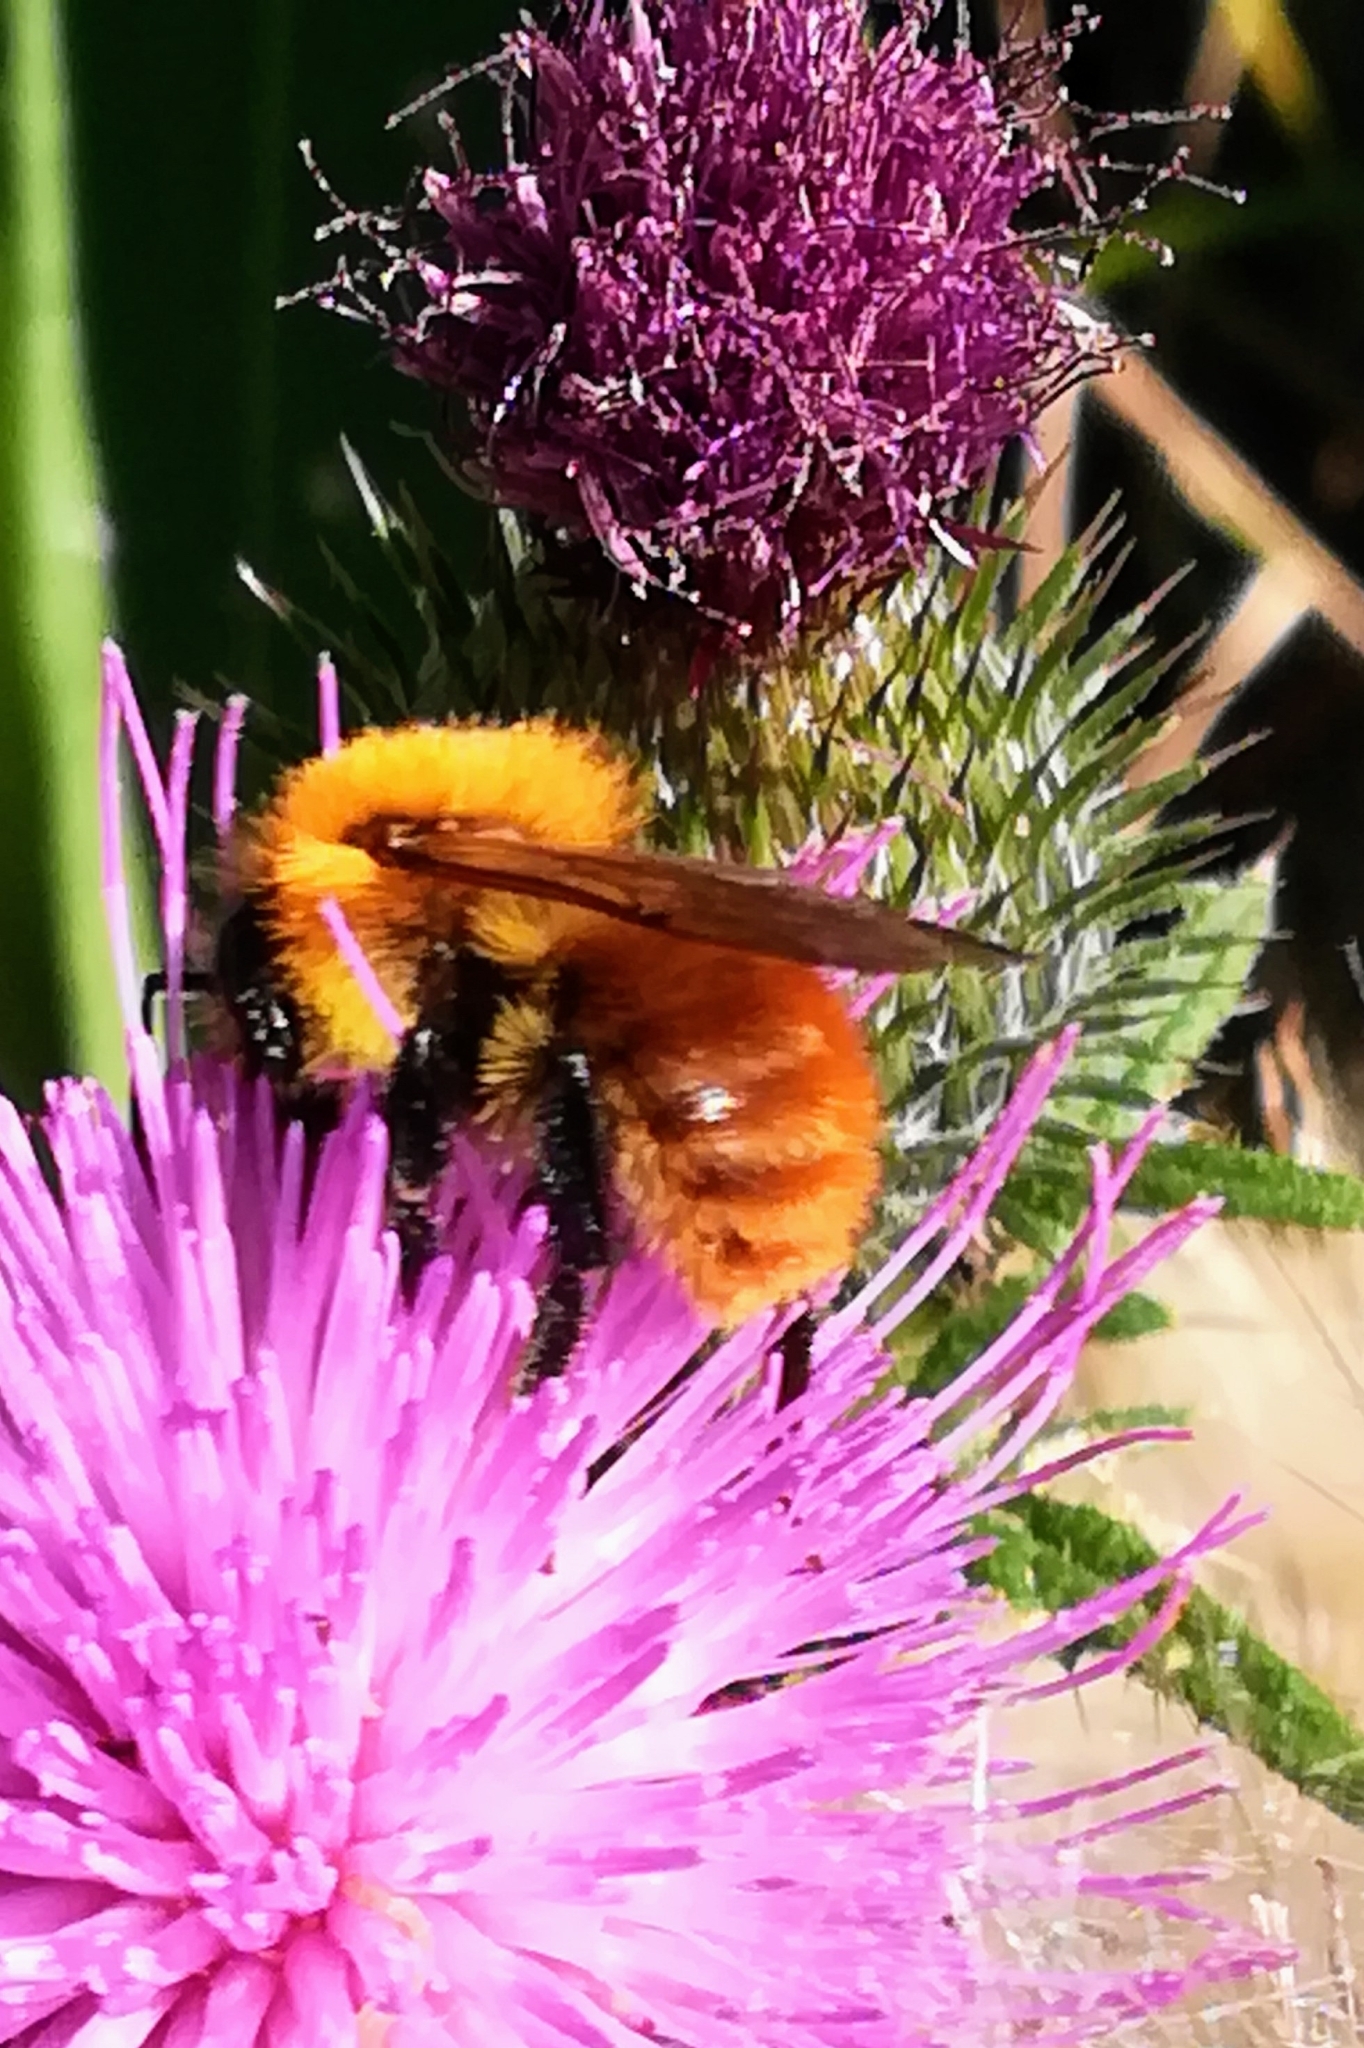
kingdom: Animalia
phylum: Arthropoda
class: Insecta
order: Hymenoptera
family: Apidae
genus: Bombus
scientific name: Bombus pascuorum
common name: Common carder bee
